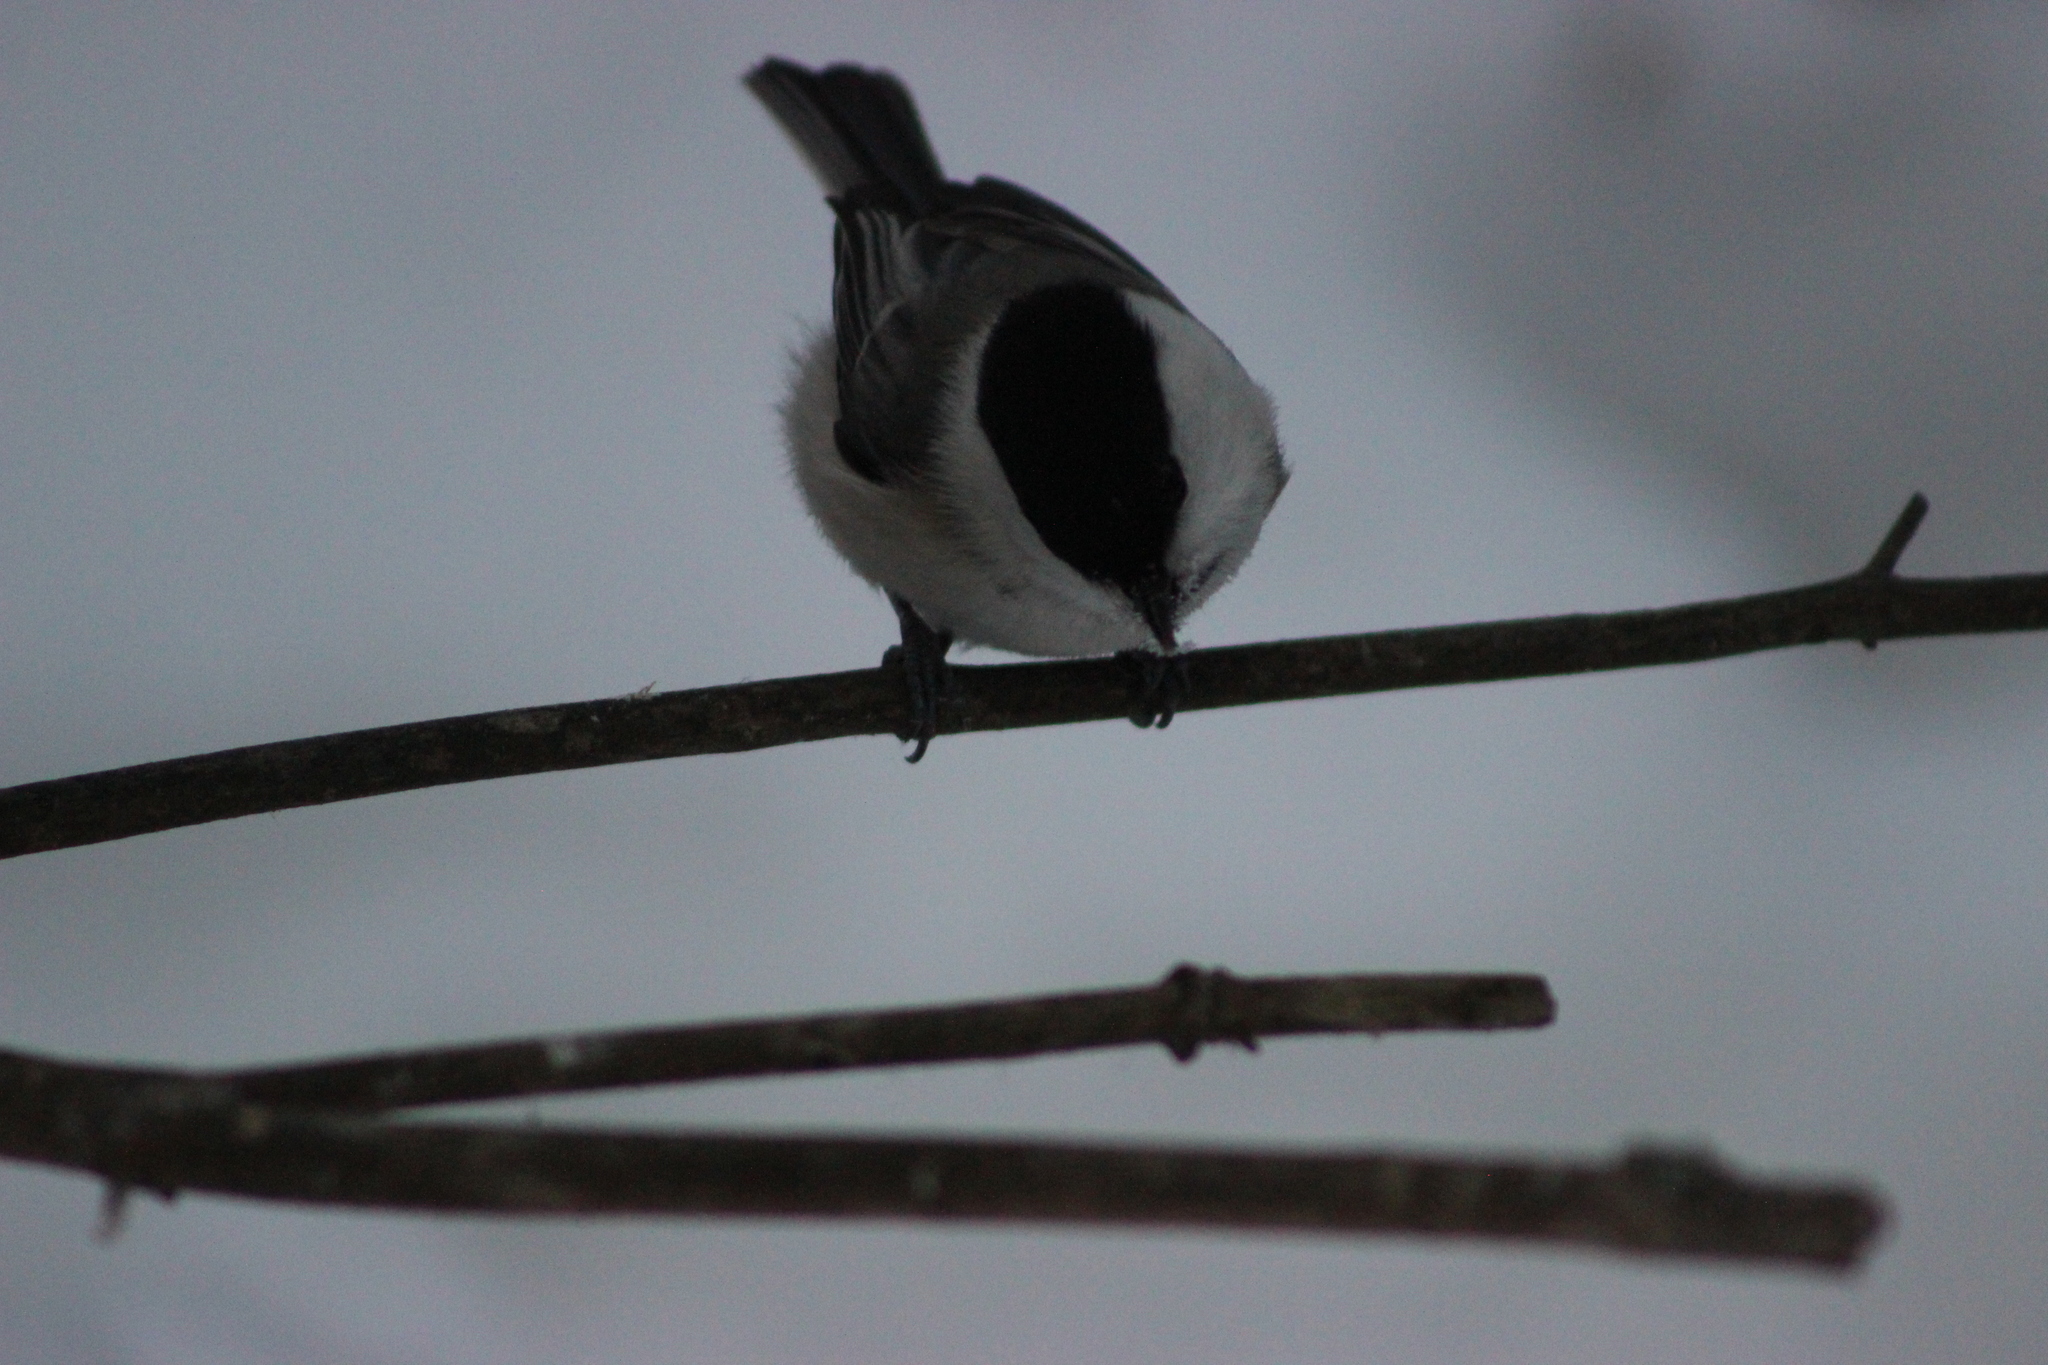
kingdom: Animalia
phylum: Chordata
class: Aves
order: Passeriformes
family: Paridae
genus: Poecile
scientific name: Poecile montanus
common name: Willow tit
